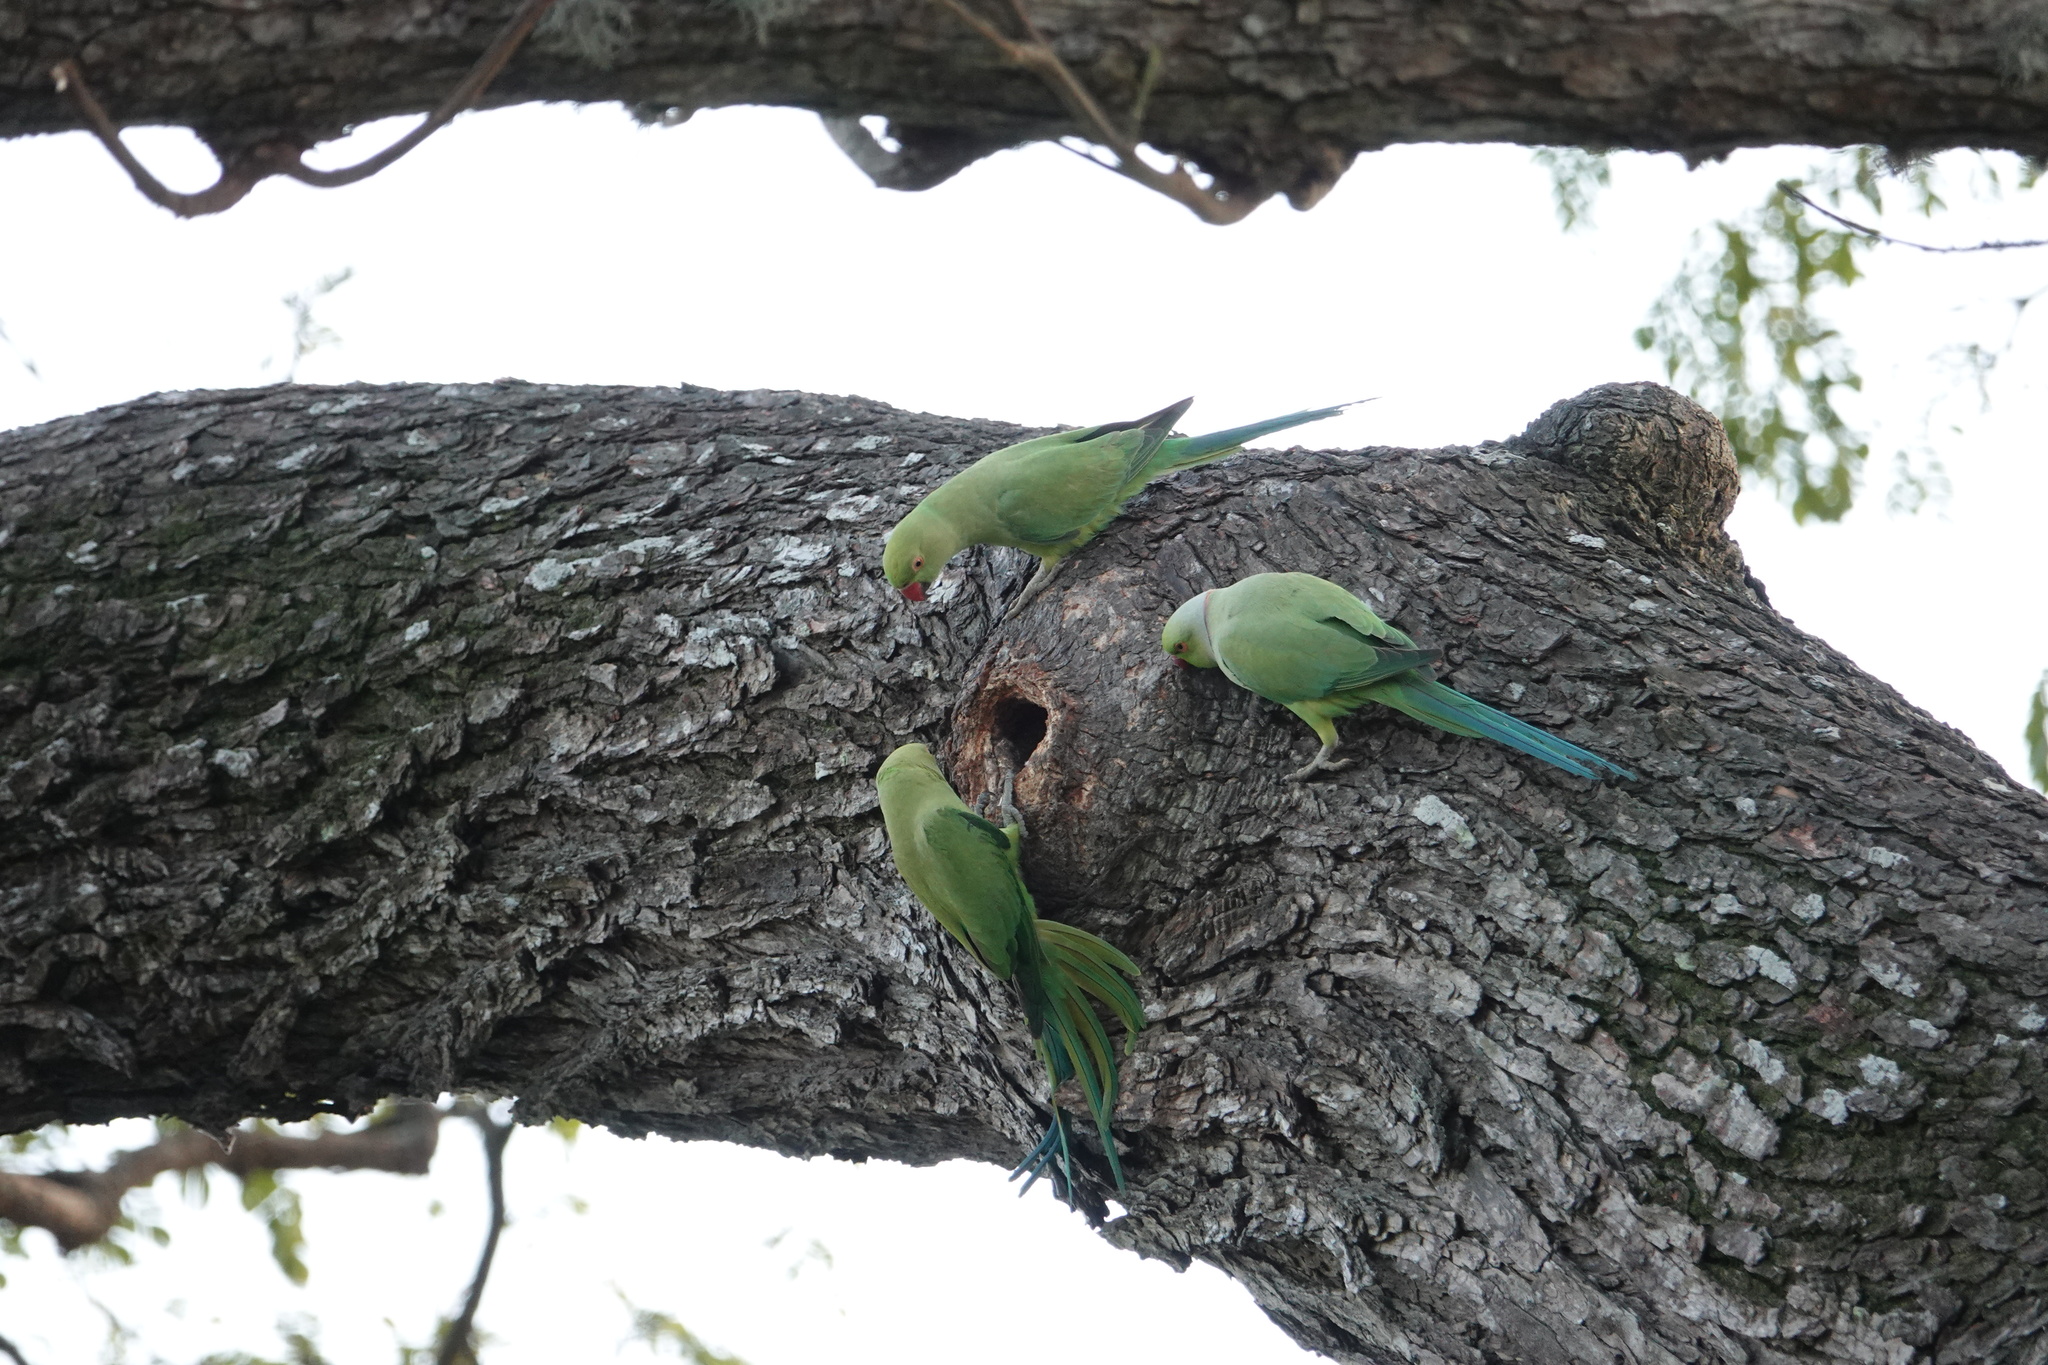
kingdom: Animalia
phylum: Chordata
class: Aves
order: Psittaciformes
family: Psittacidae
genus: Psittacula
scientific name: Psittacula krameri
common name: Rose-ringed parakeet
